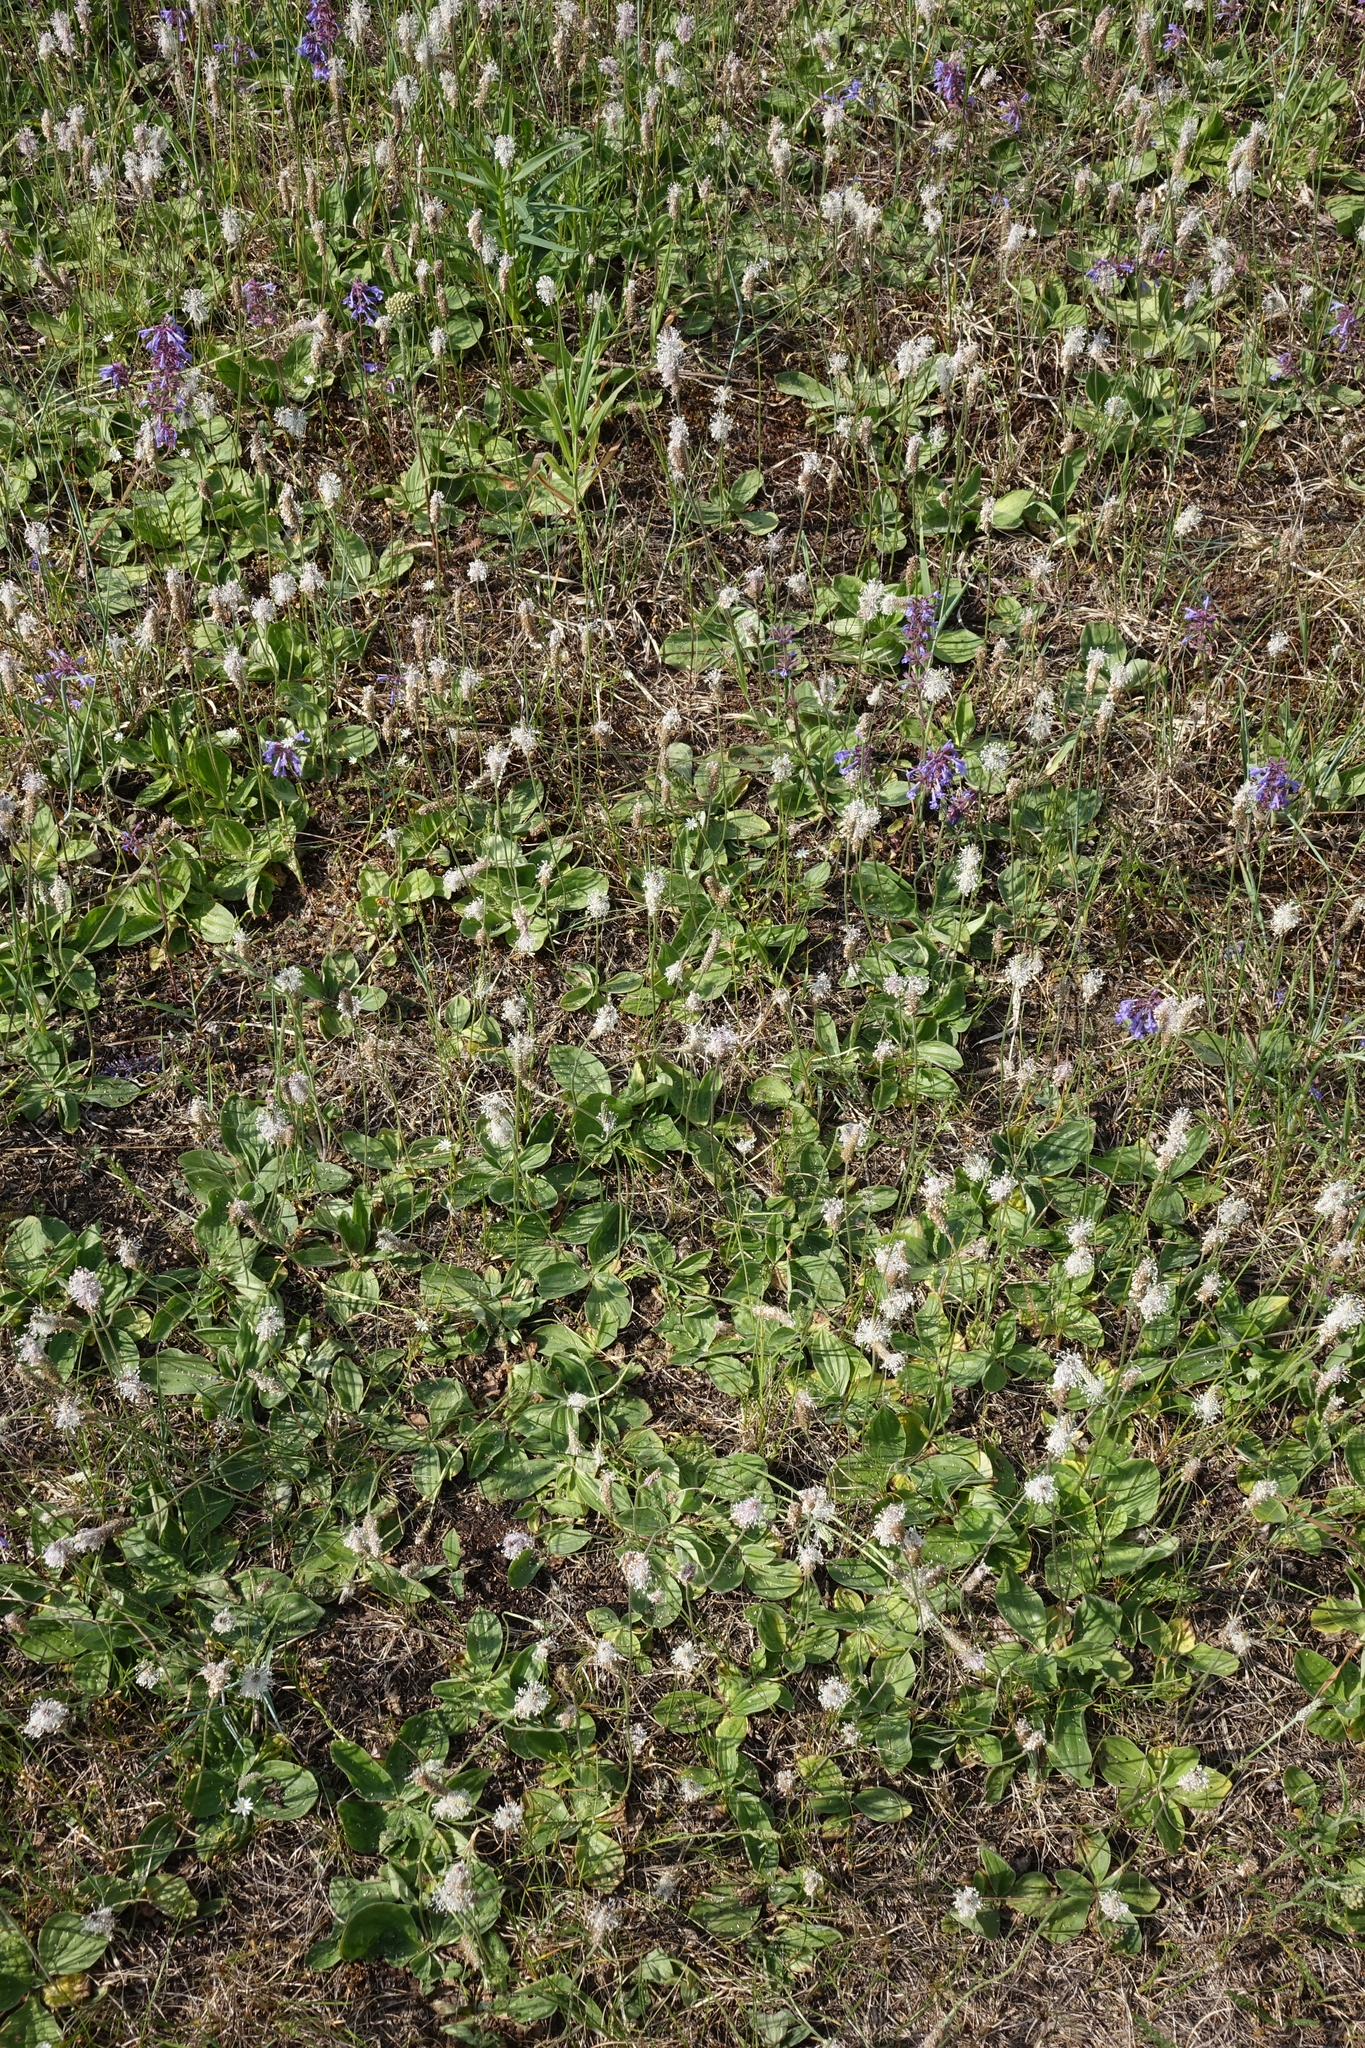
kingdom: Plantae
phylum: Tracheophyta
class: Magnoliopsida
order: Lamiales
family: Plantaginaceae
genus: Plantago
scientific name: Plantago media
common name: Hoary plantain
